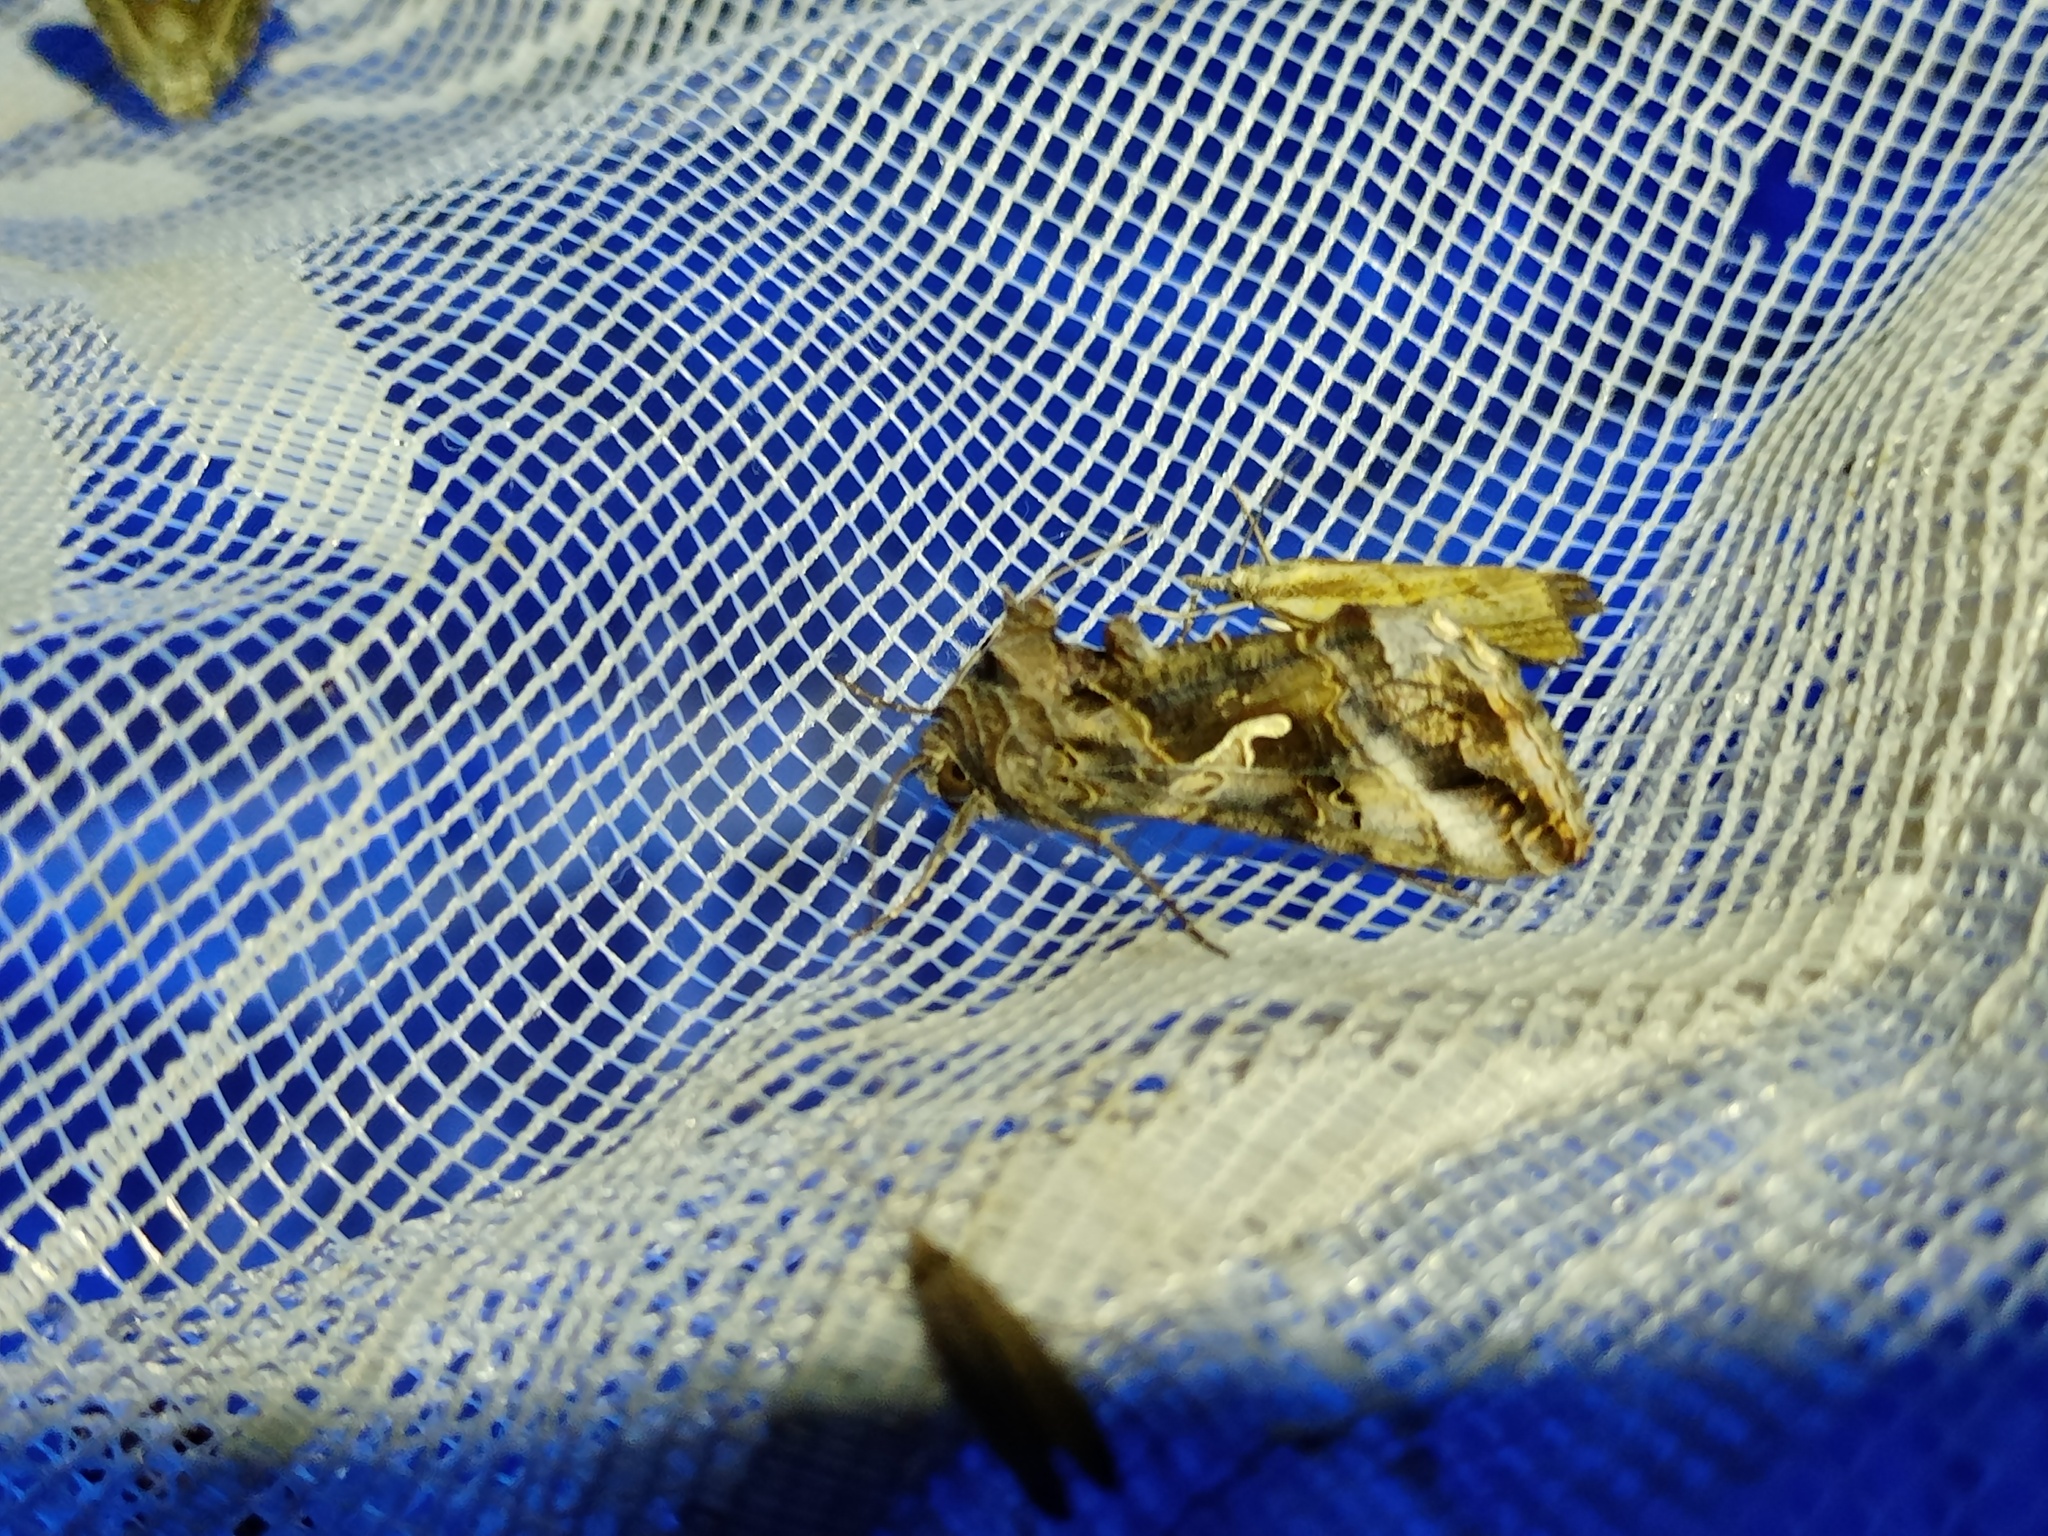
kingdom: Animalia
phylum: Arthropoda
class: Insecta
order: Lepidoptera
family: Noctuidae
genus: Autographa
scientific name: Autographa gamma
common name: Silver y
